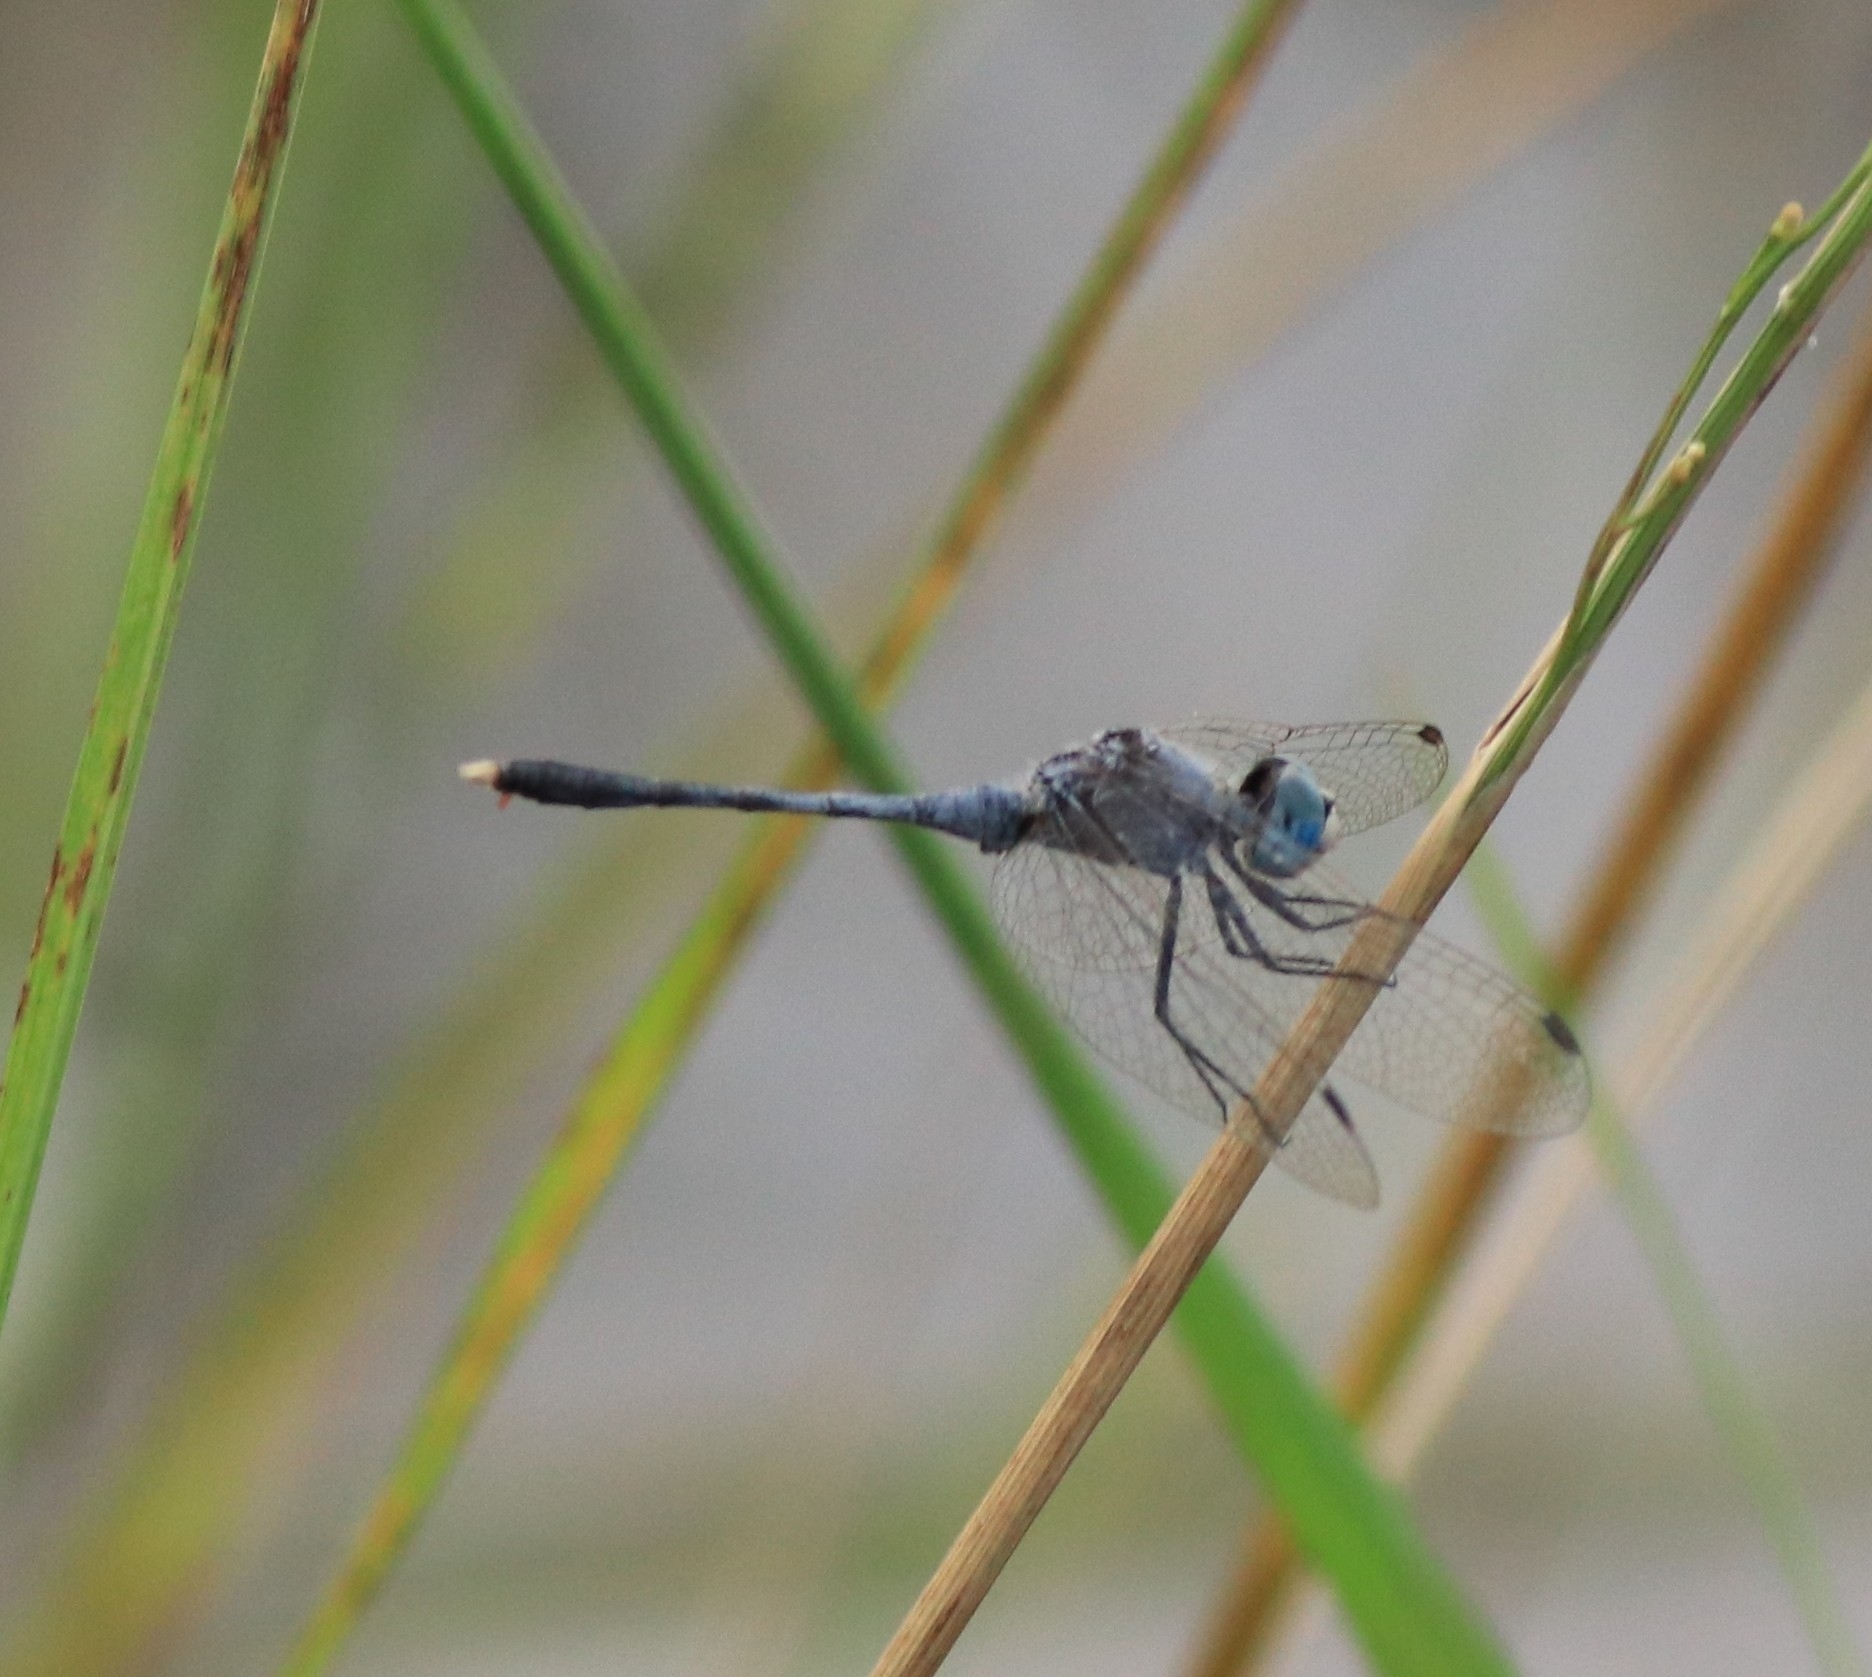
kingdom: Animalia
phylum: Arthropoda
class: Insecta
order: Odonata
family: Libellulidae
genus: Diplacodes
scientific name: Diplacodes trivialis
